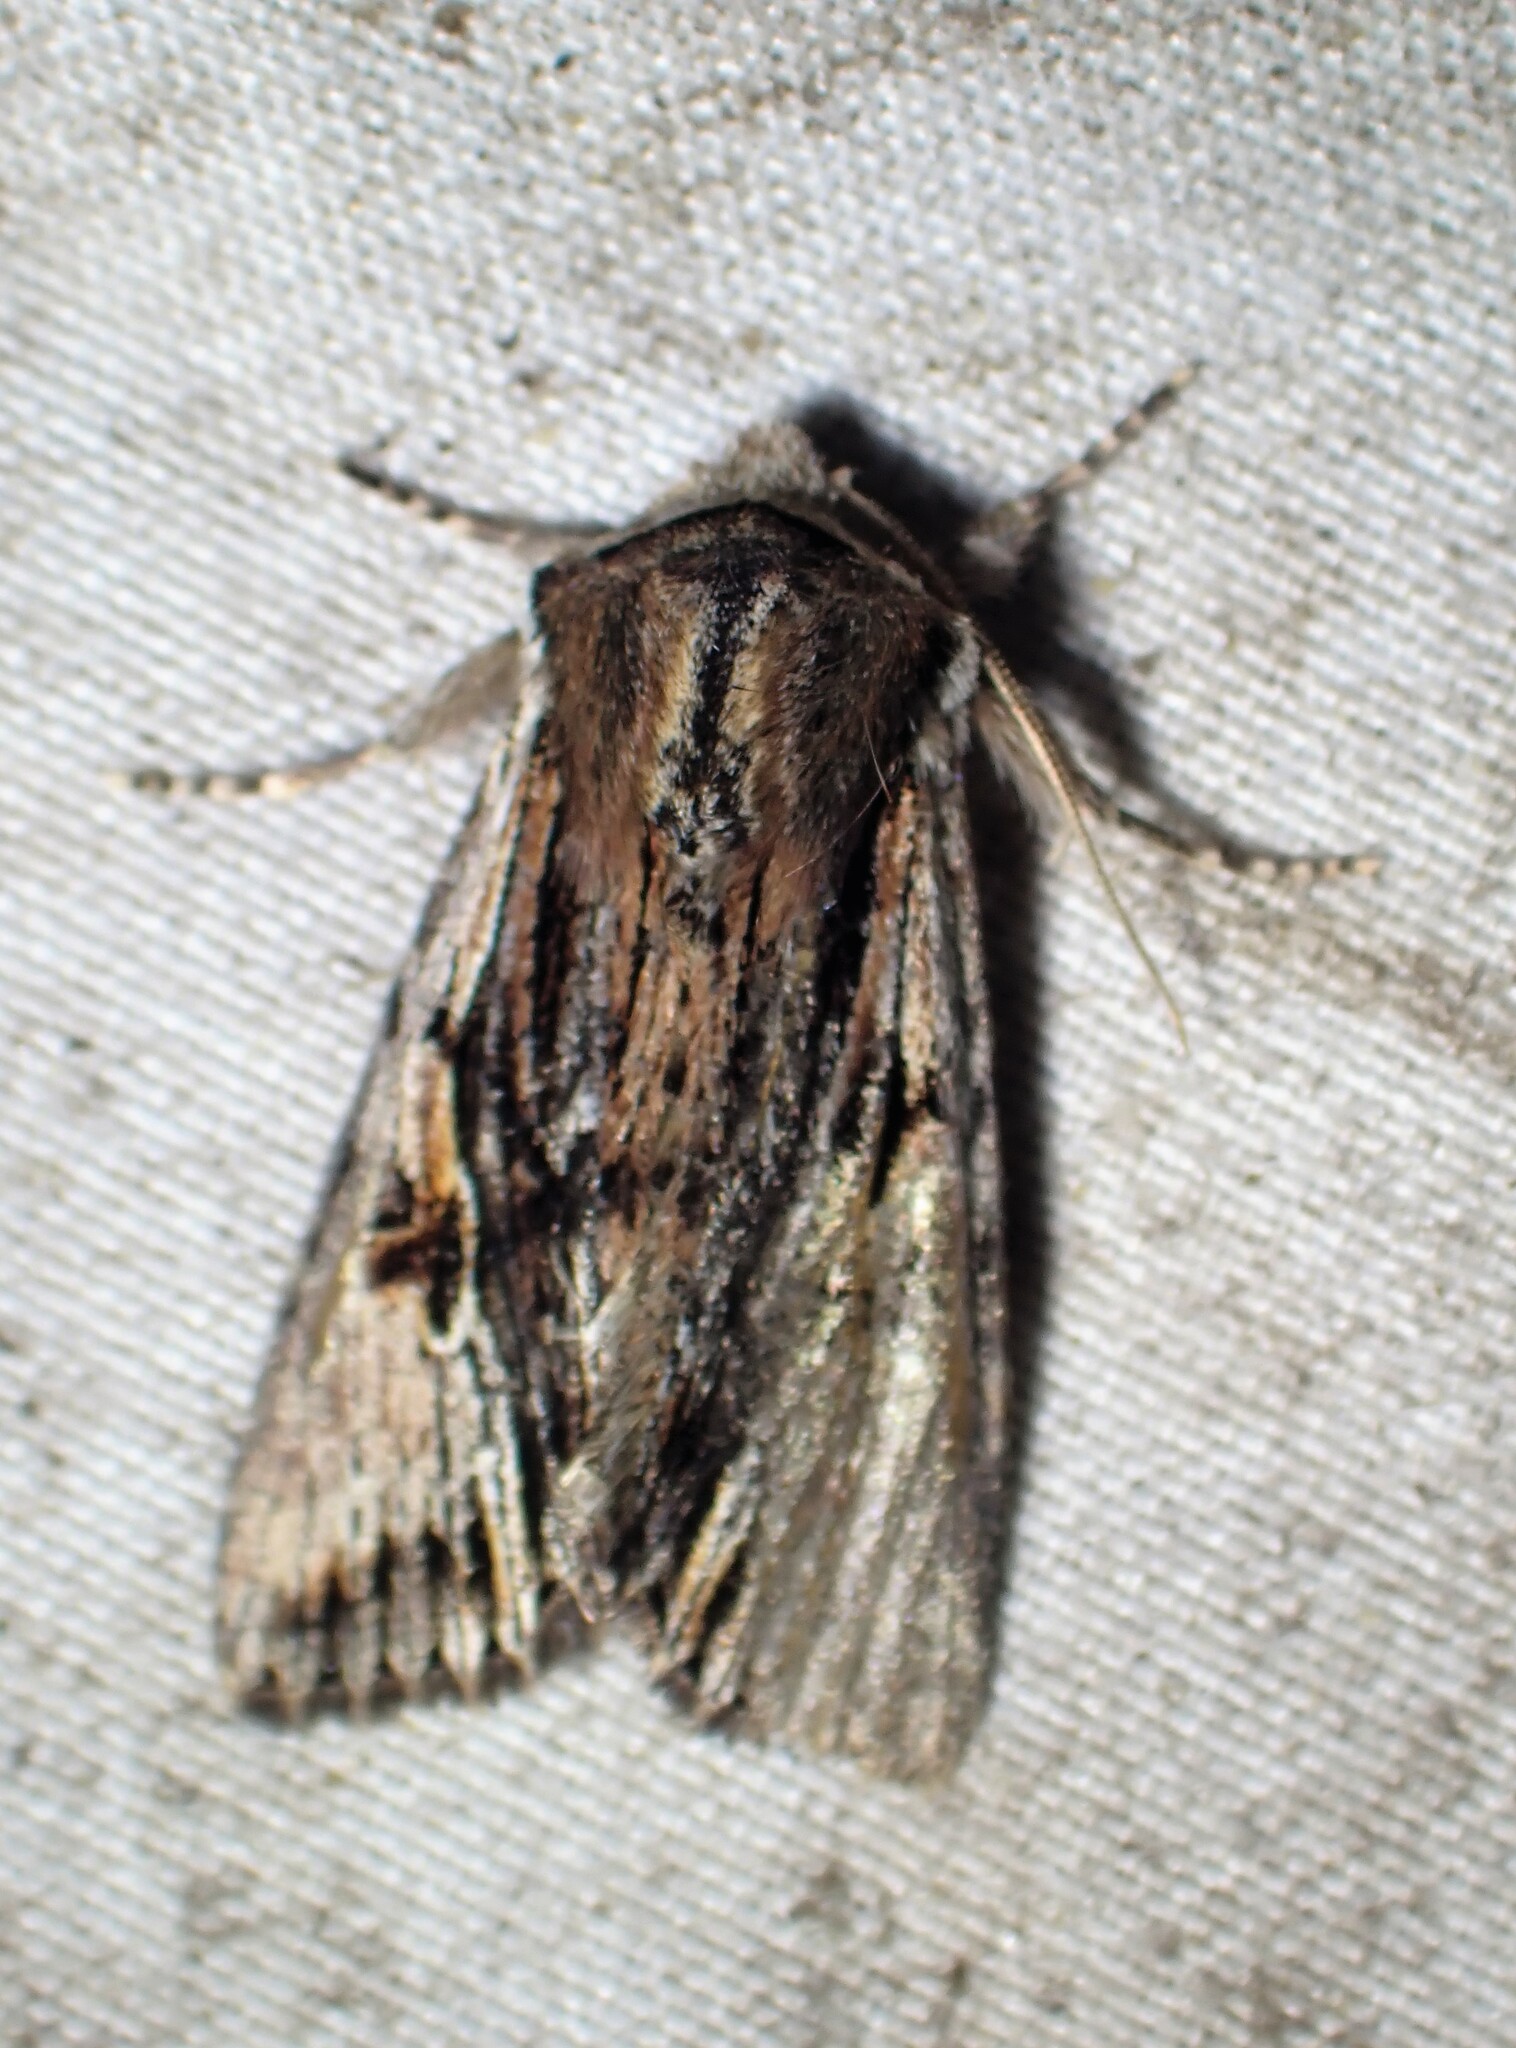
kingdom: Animalia
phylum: Arthropoda
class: Insecta
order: Lepidoptera
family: Noctuidae
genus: Achatia
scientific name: Achatia evicta
